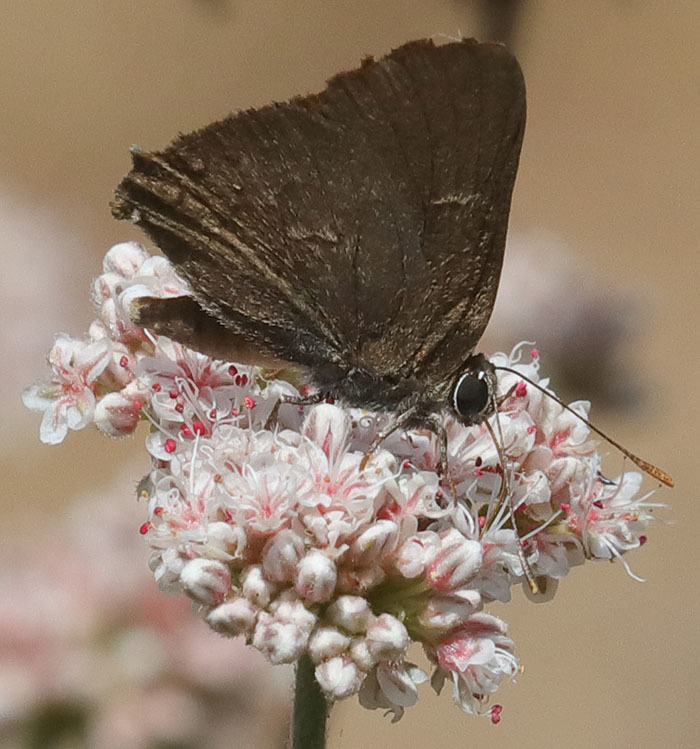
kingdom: Animalia
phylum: Arthropoda
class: Insecta
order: Lepidoptera
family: Lycaenidae
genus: Strymon
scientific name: Strymon saepium
